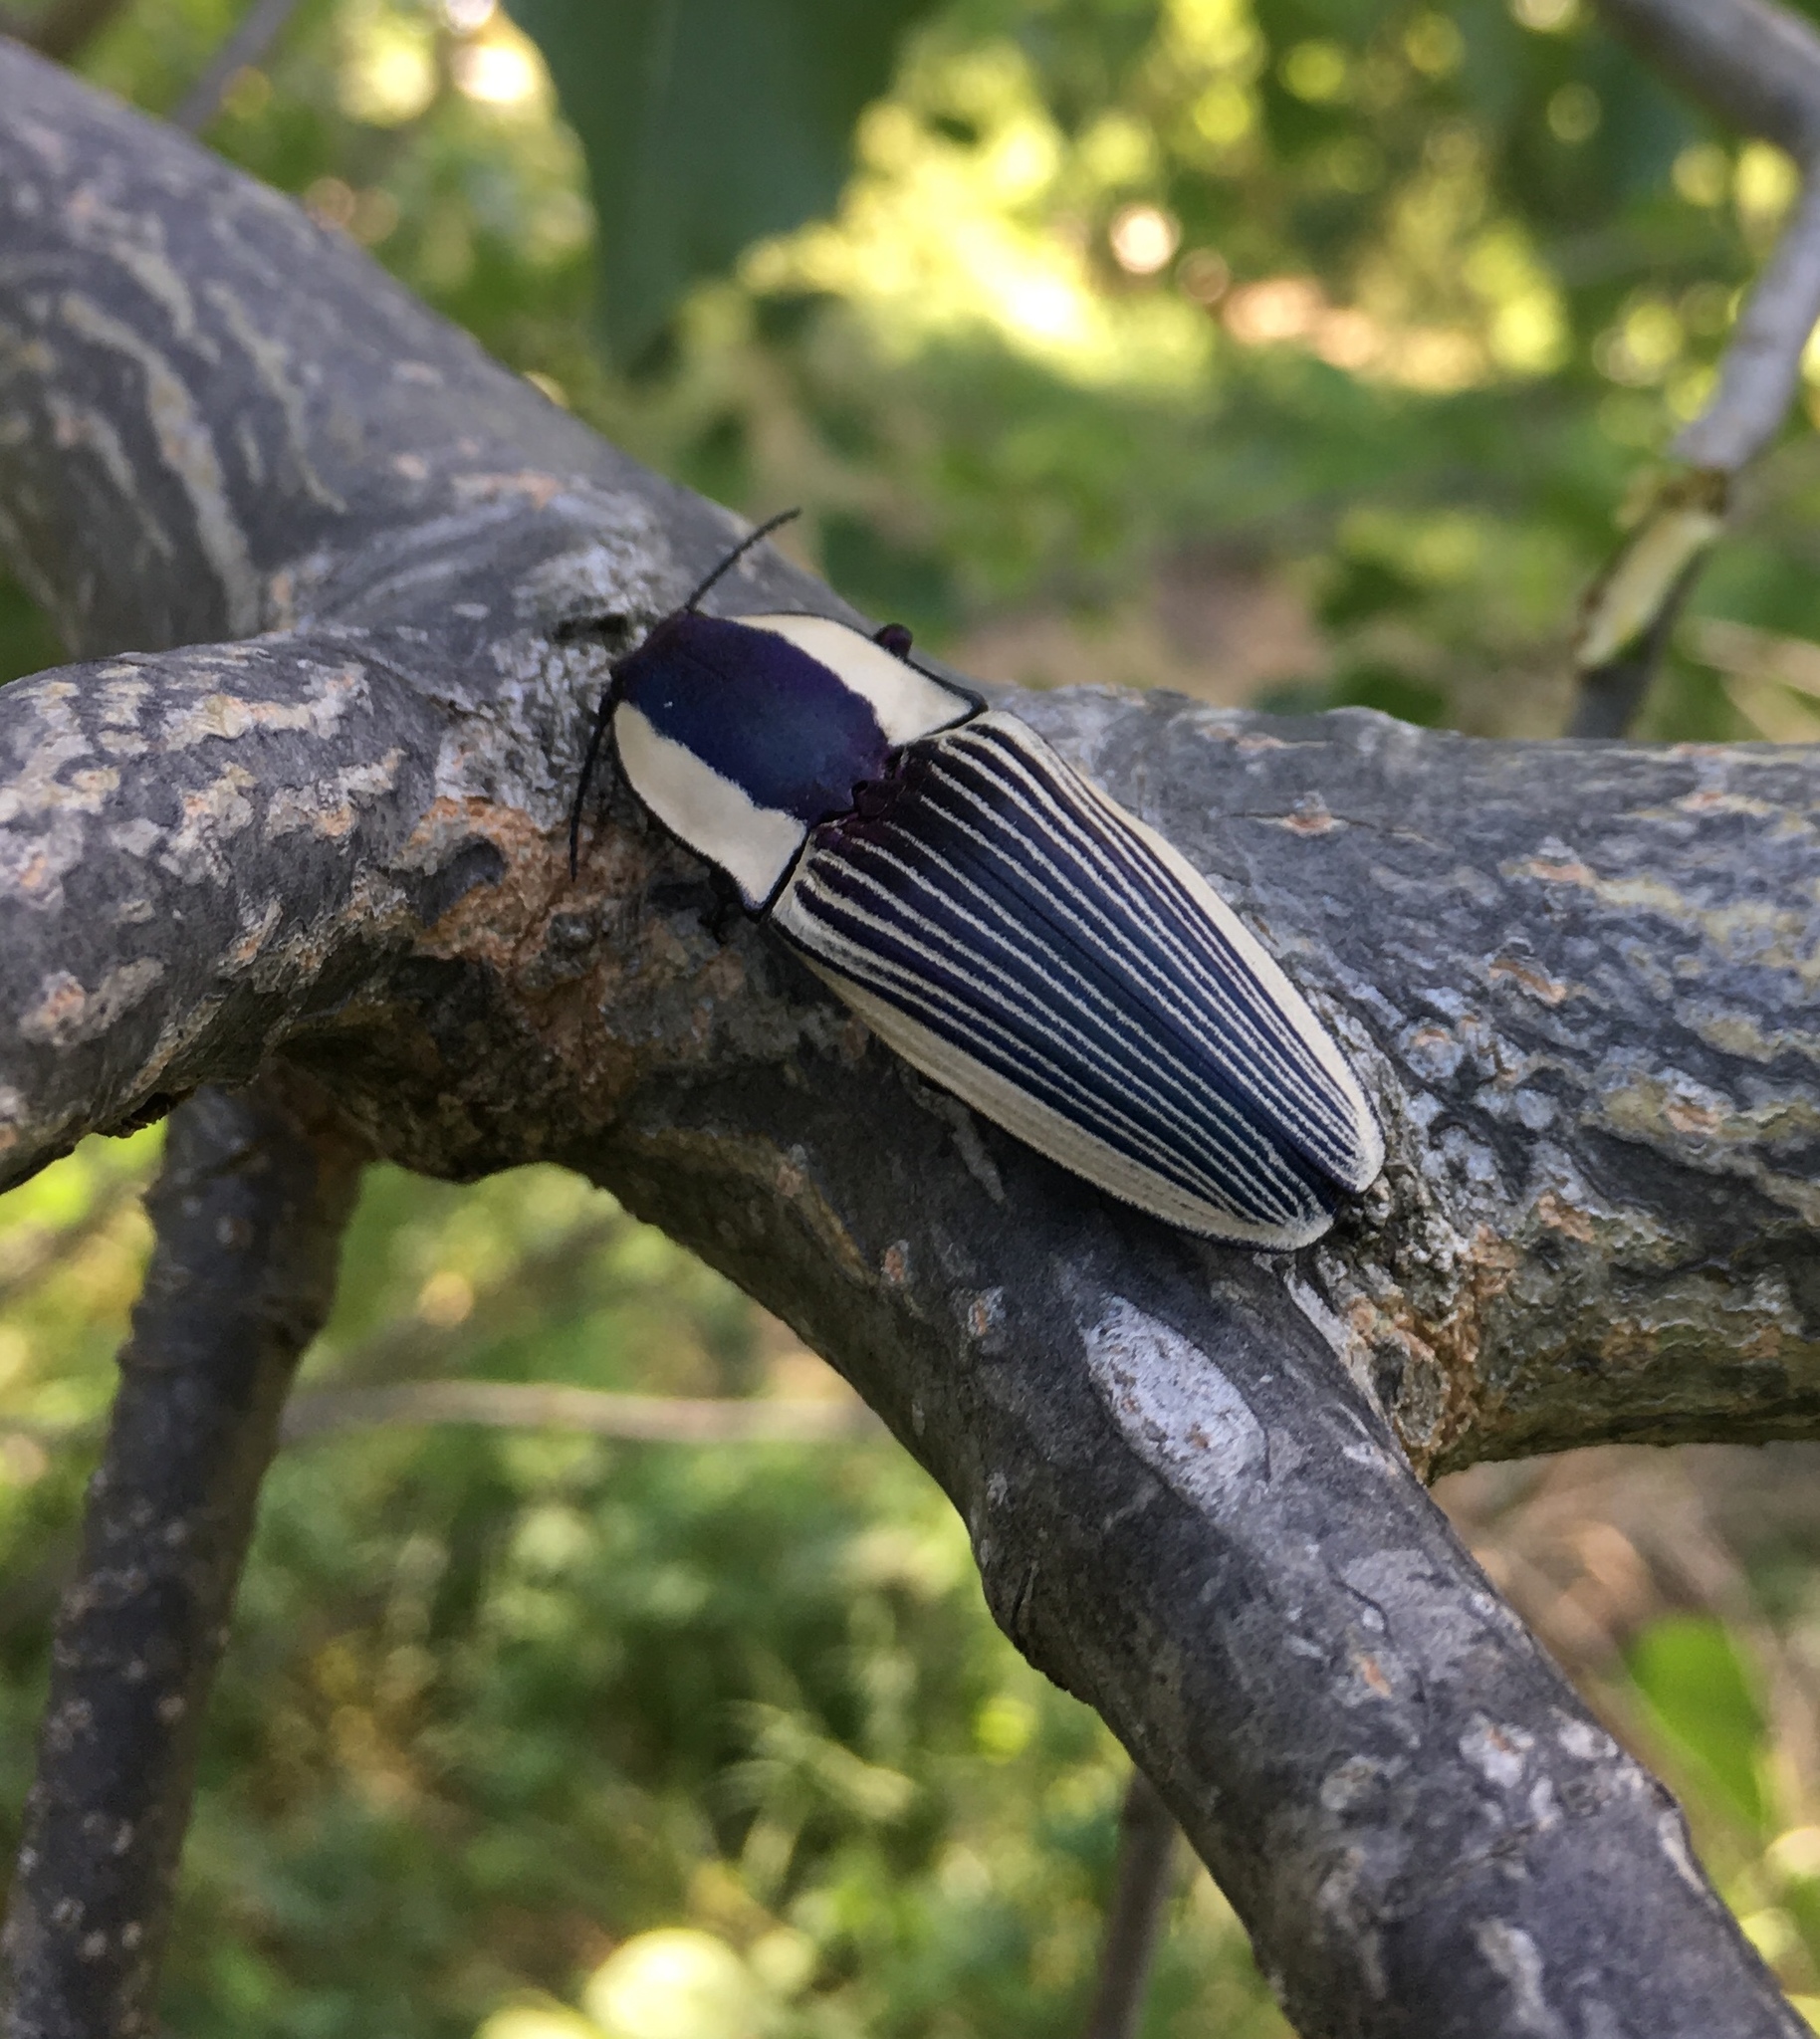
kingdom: Animalia
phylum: Arthropoda
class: Insecta
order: Coleoptera
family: Elateridae
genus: Chalcolepidius
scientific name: Chalcolepidius
